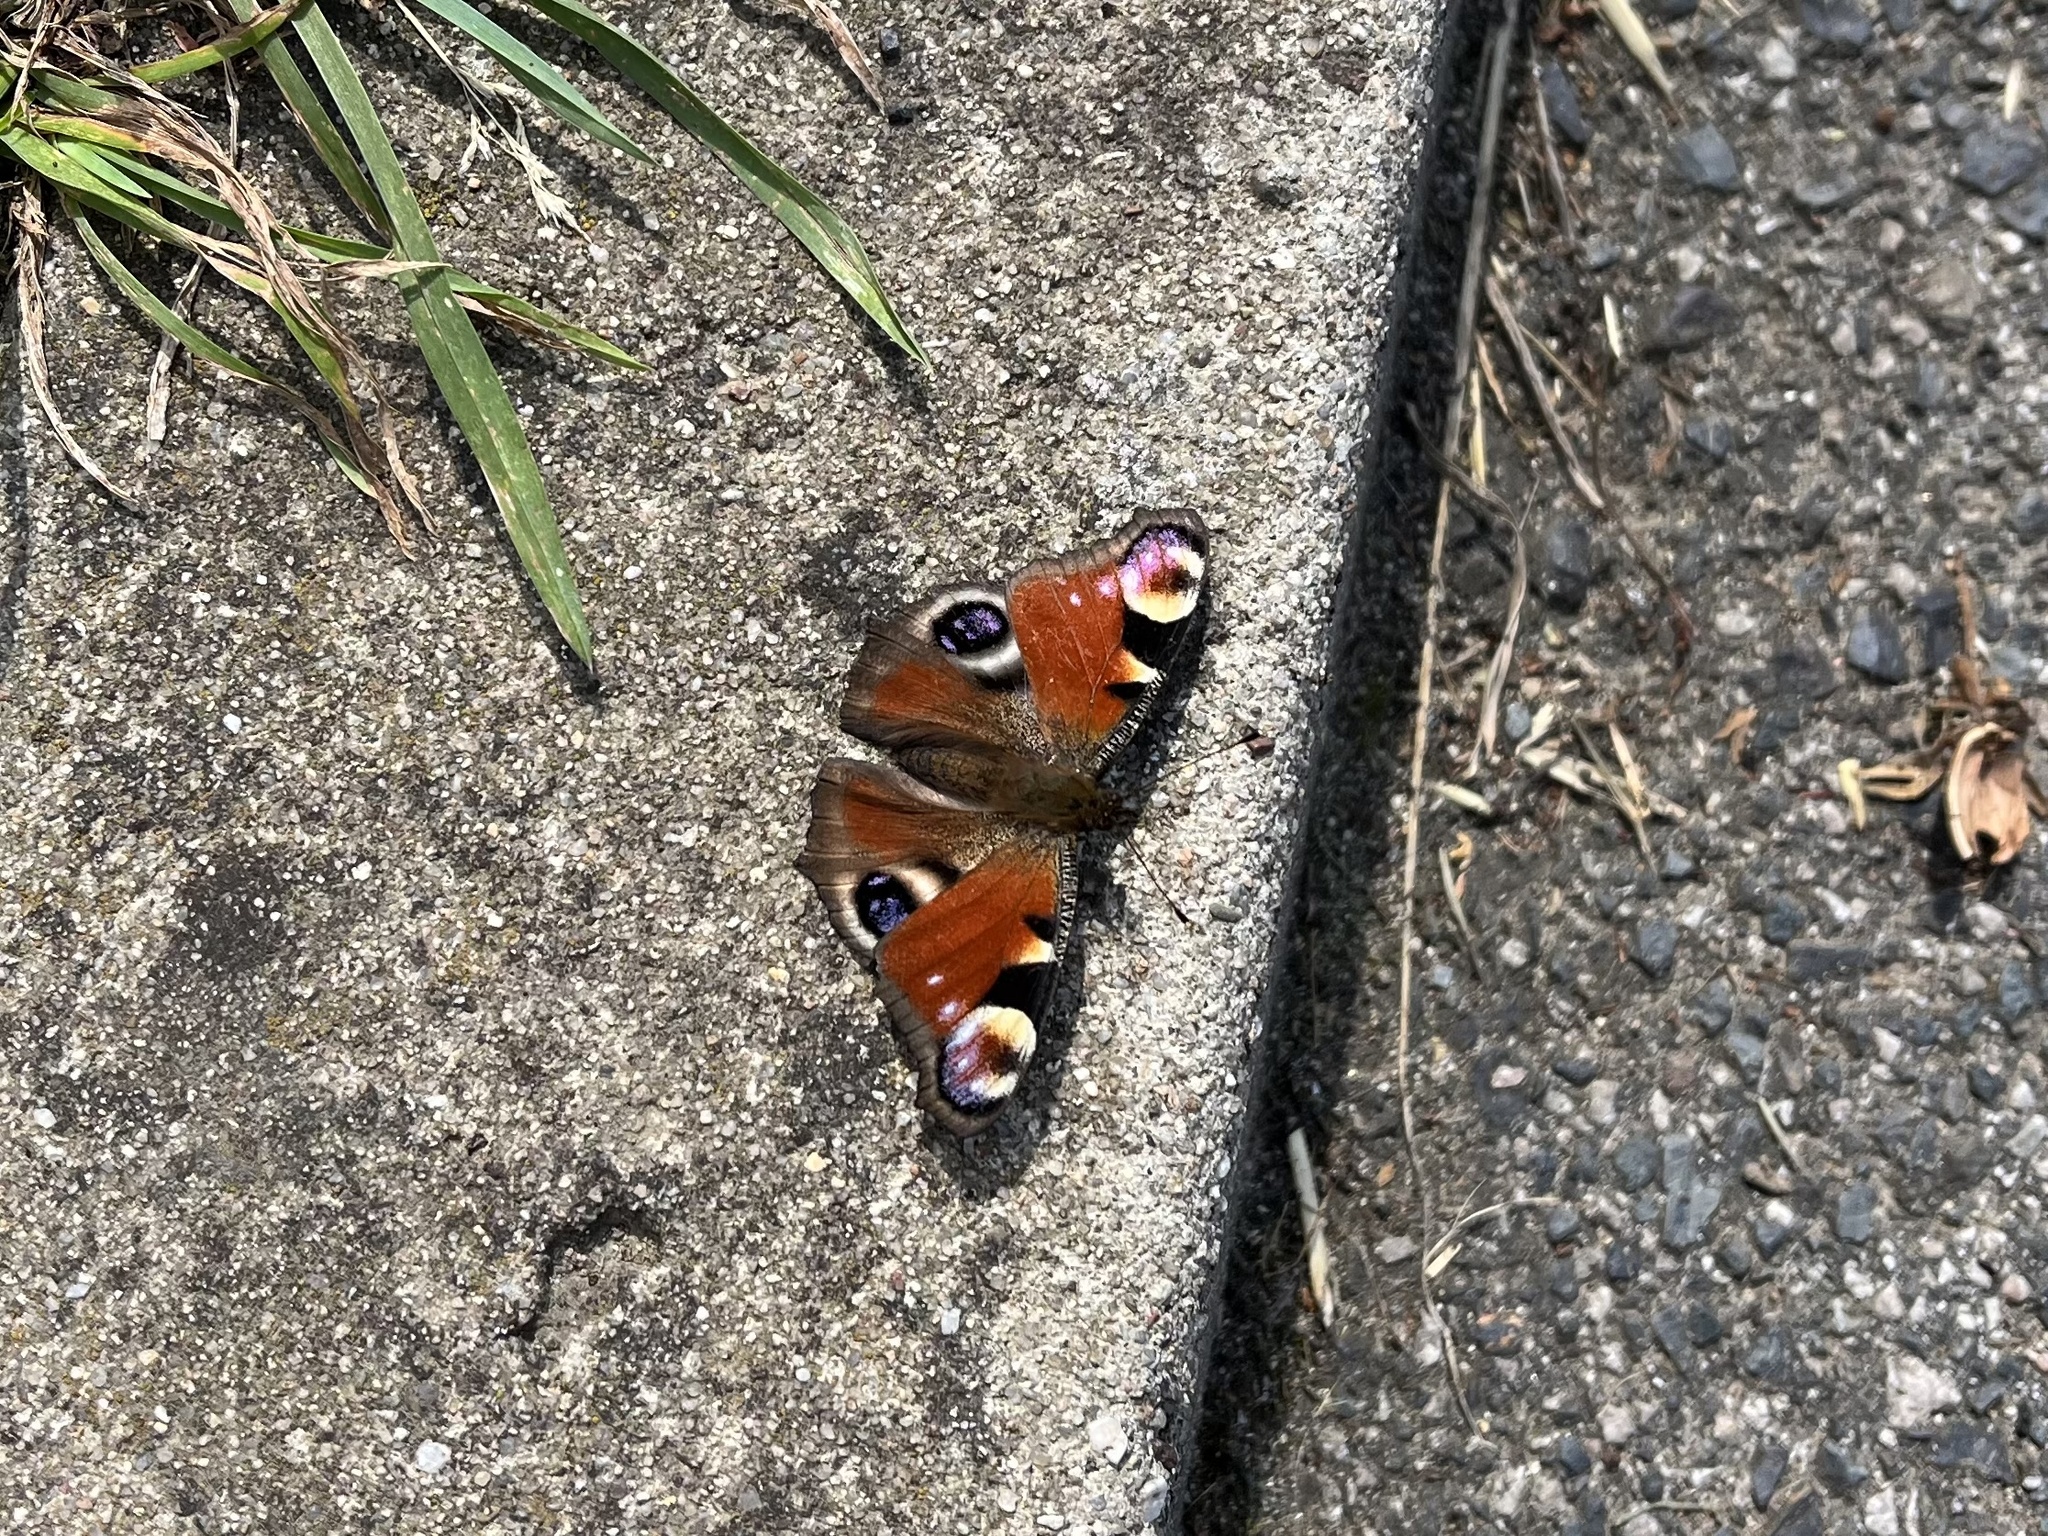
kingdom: Animalia
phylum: Arthropoda
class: Insecta
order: Lepidoptera
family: Nymphalidae
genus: Aglais
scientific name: Aglais io
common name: Peacock
